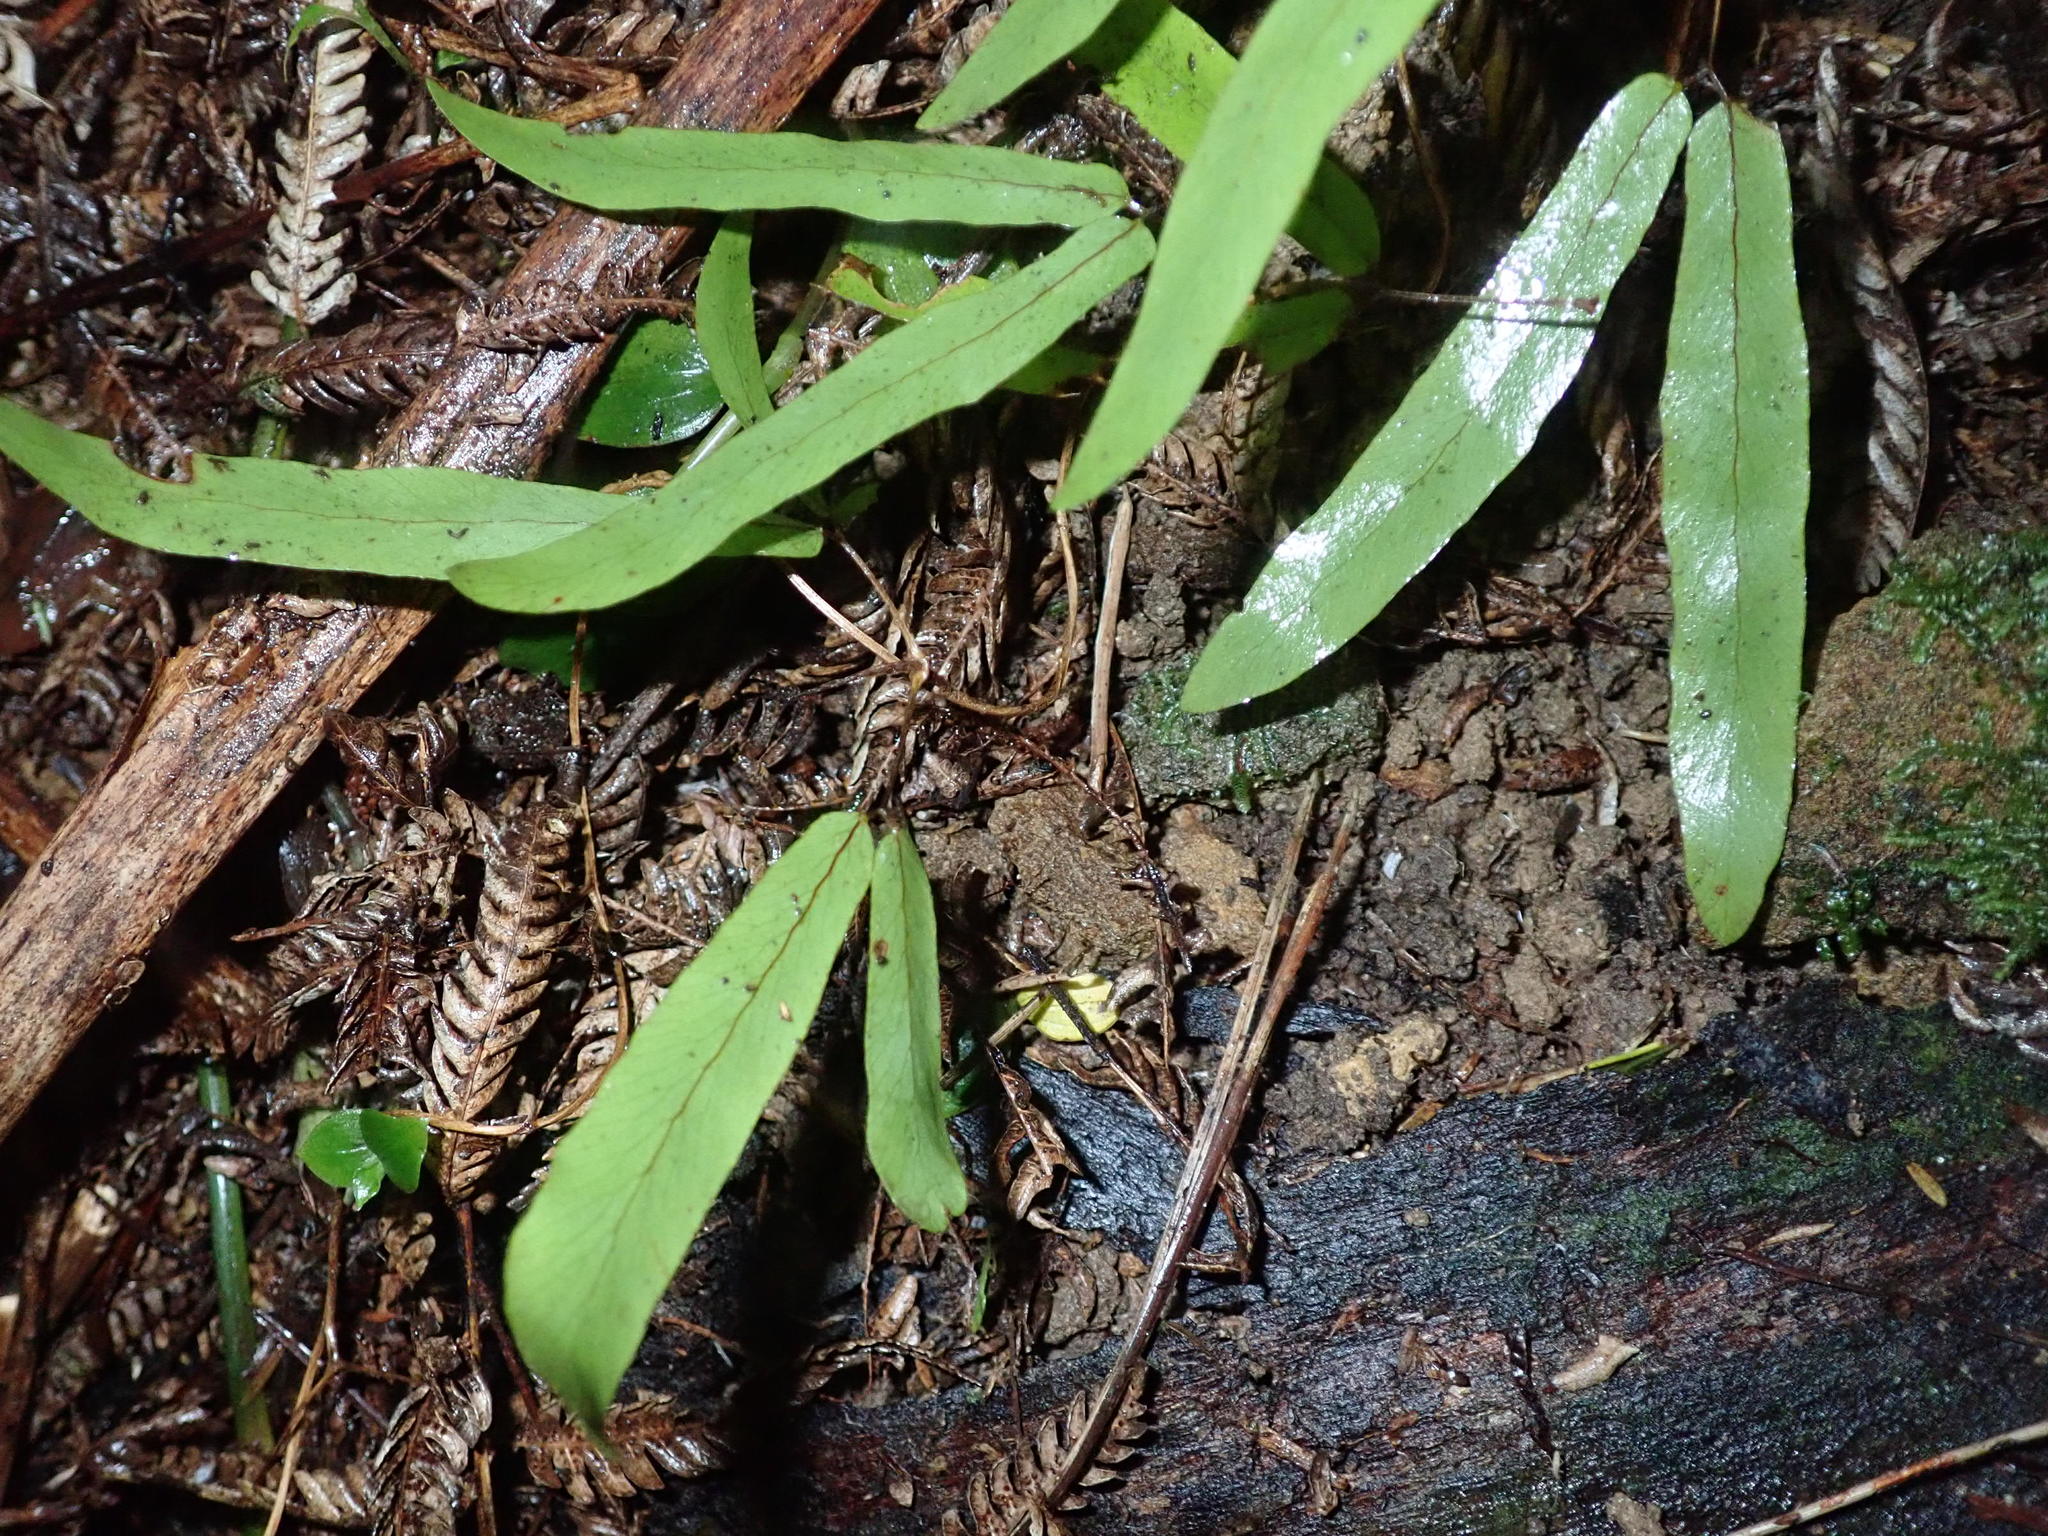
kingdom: Plantae
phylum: Tracheophyta
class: Polypodiopsida
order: Schizaeales
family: Lygodiaceae
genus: Lygodium
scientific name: Lygodium articulatum
